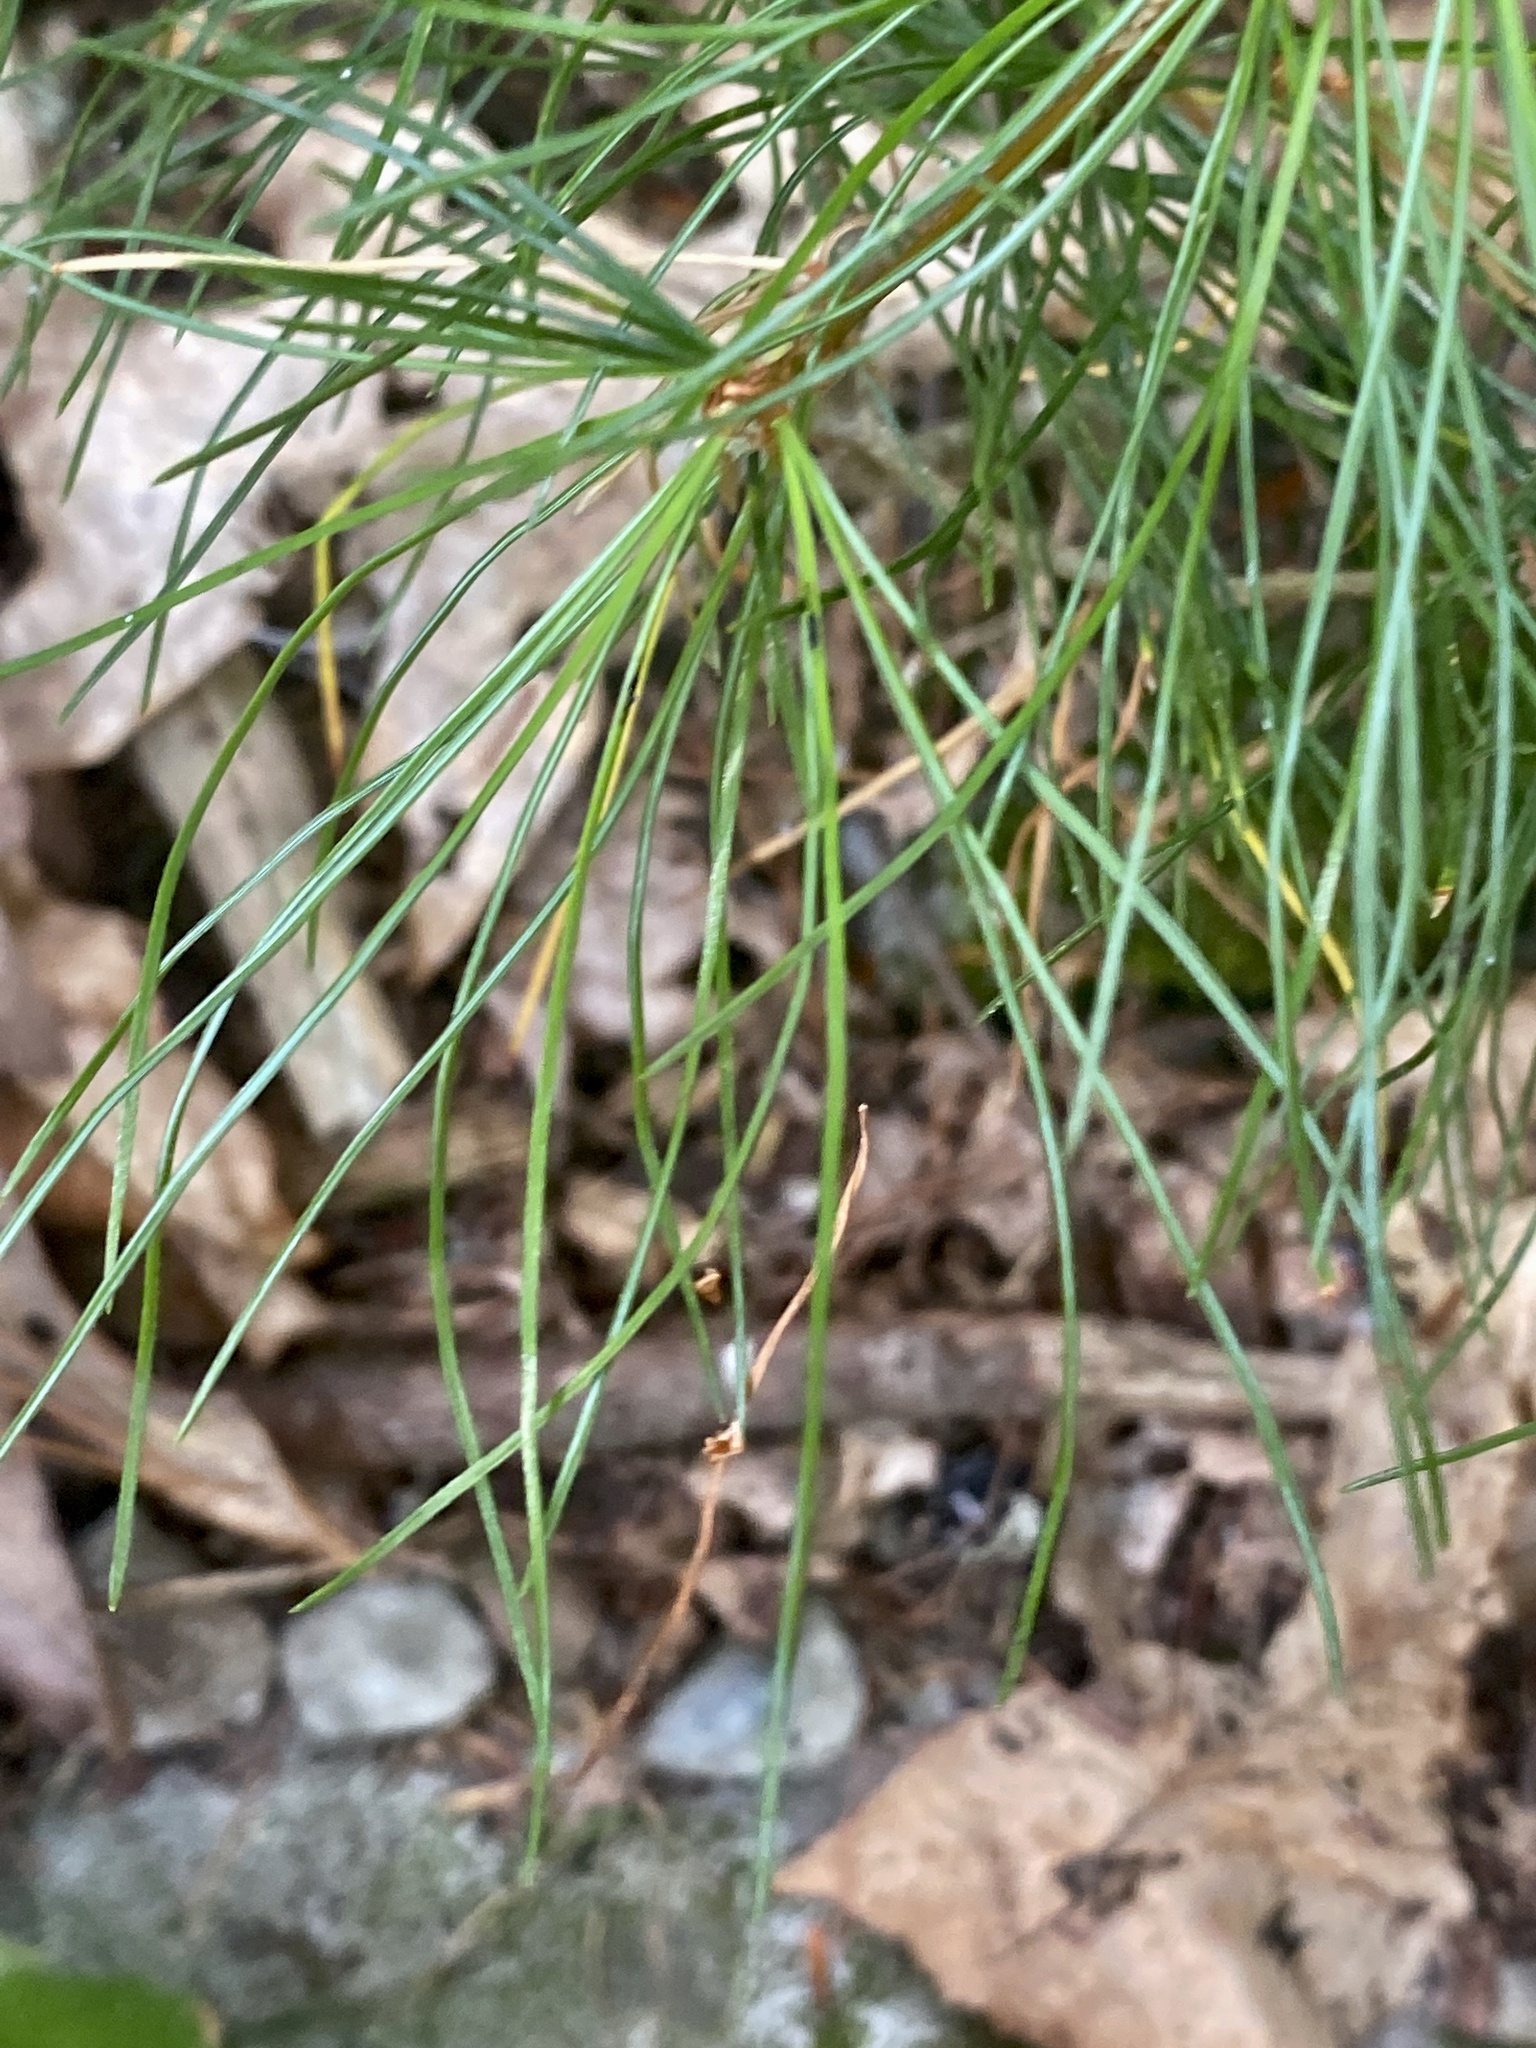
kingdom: Plantae
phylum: Tracheophyta
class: Pinopsida
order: Pinales
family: Pinaceae
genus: Pinus
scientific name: Pinus strobus
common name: Weymouth pine
